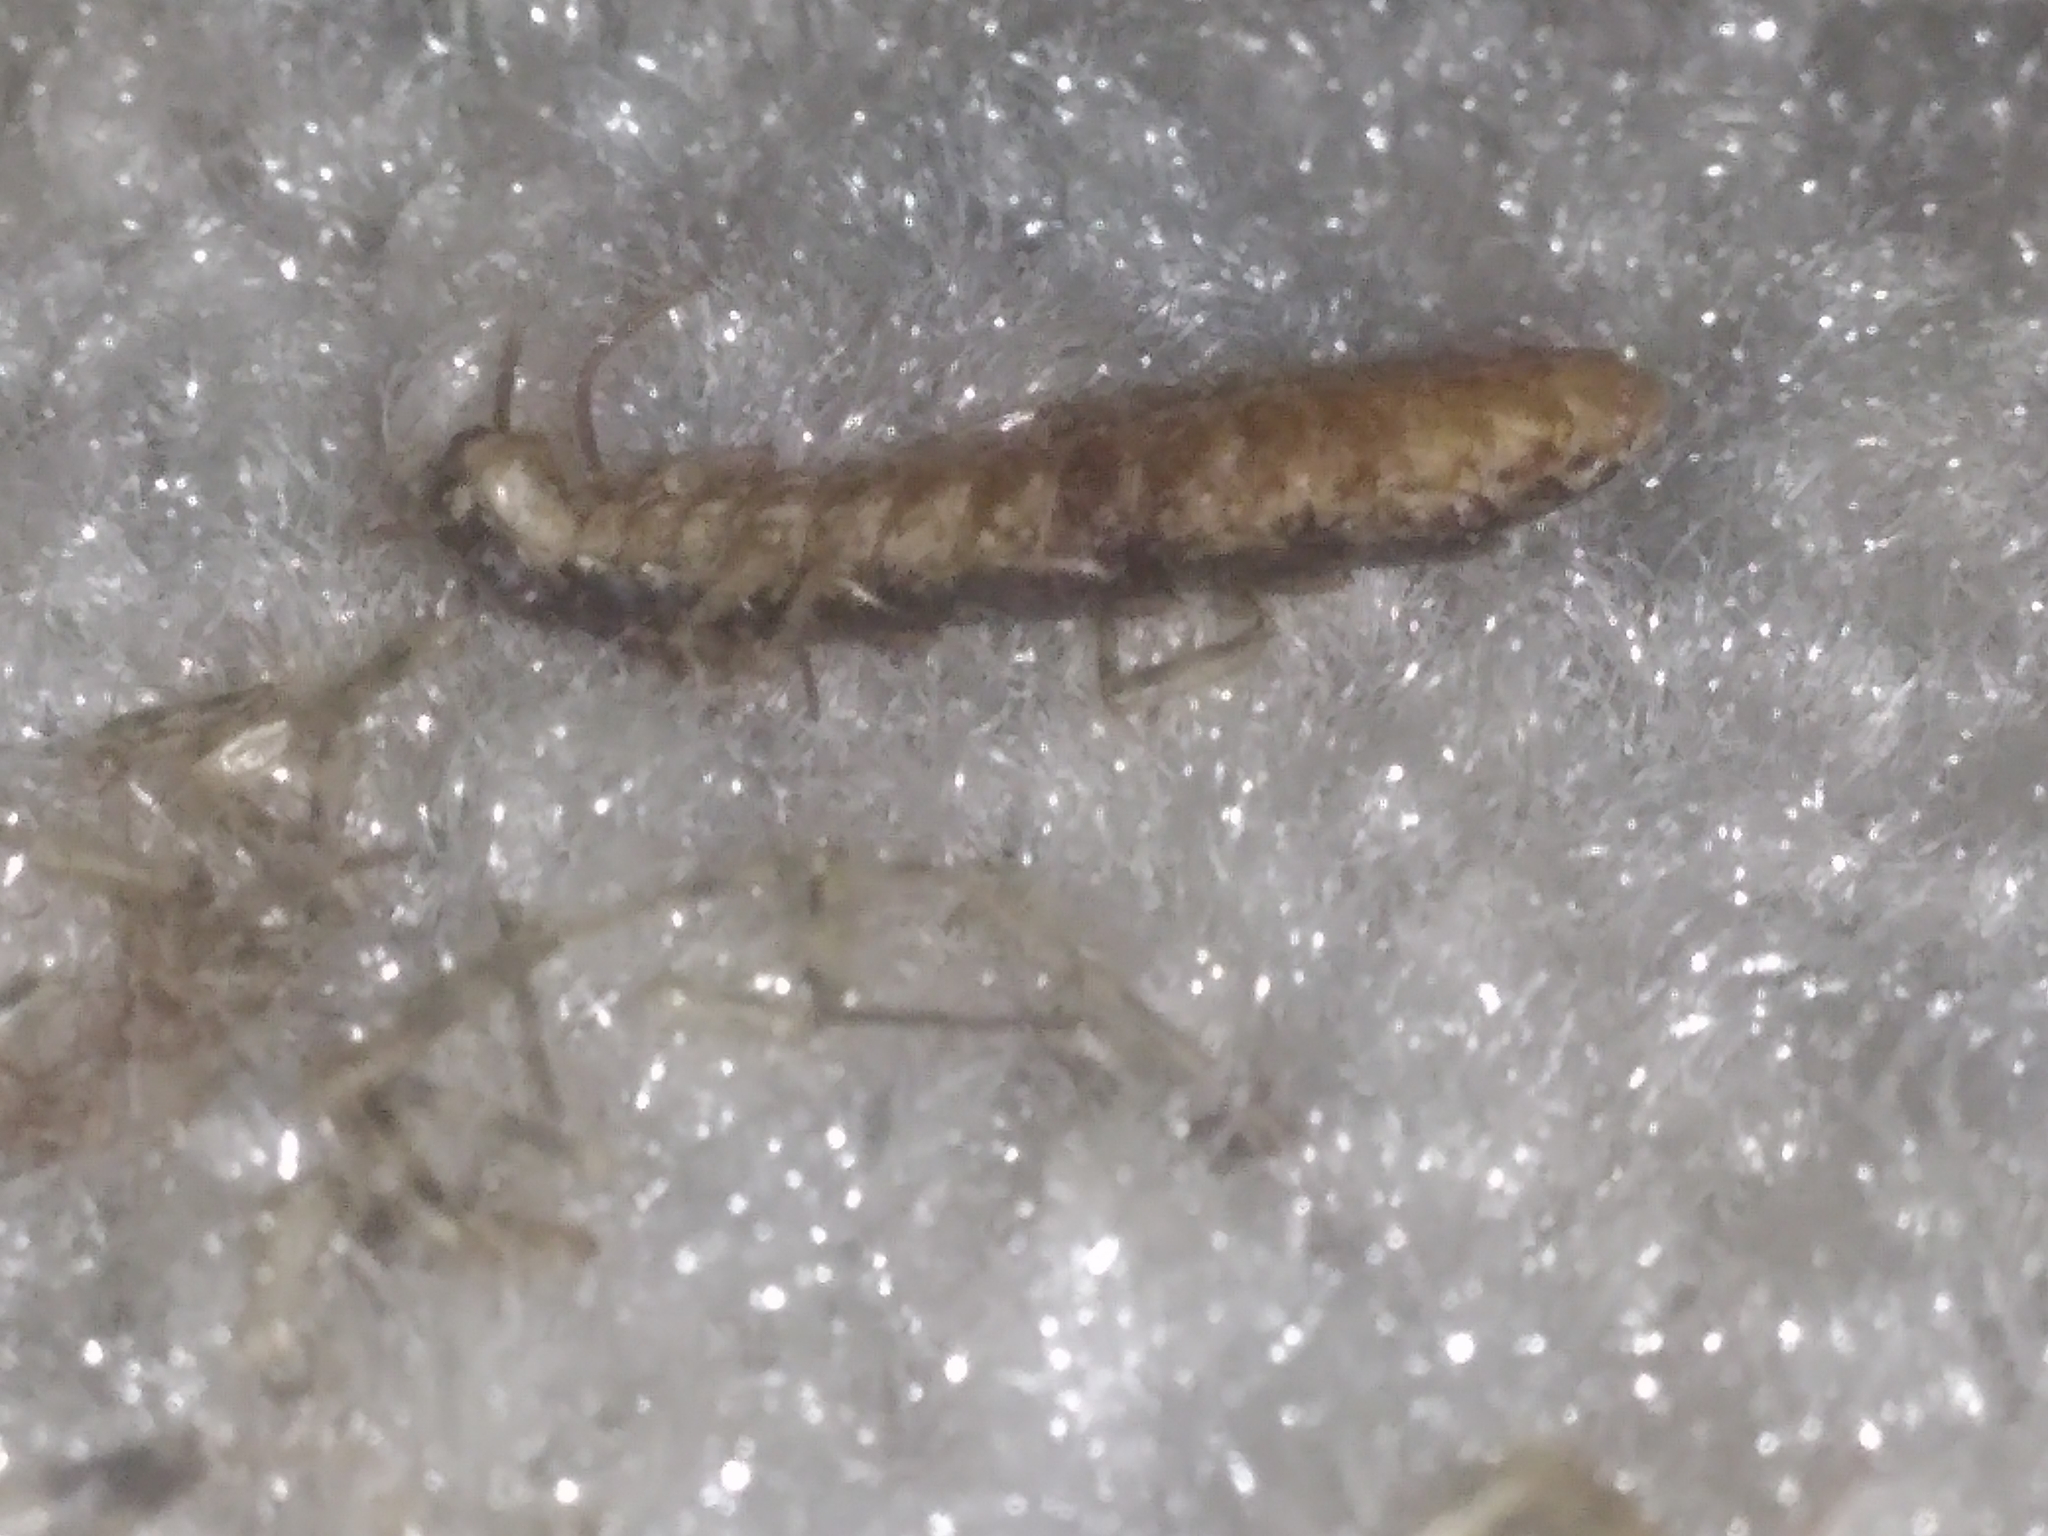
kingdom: Animalia
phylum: Arthropoda
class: Chilopoda
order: Scutigeromorpha
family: Scutigeridae
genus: Scutigera
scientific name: Scutigera coleoptrata
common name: House centipede
